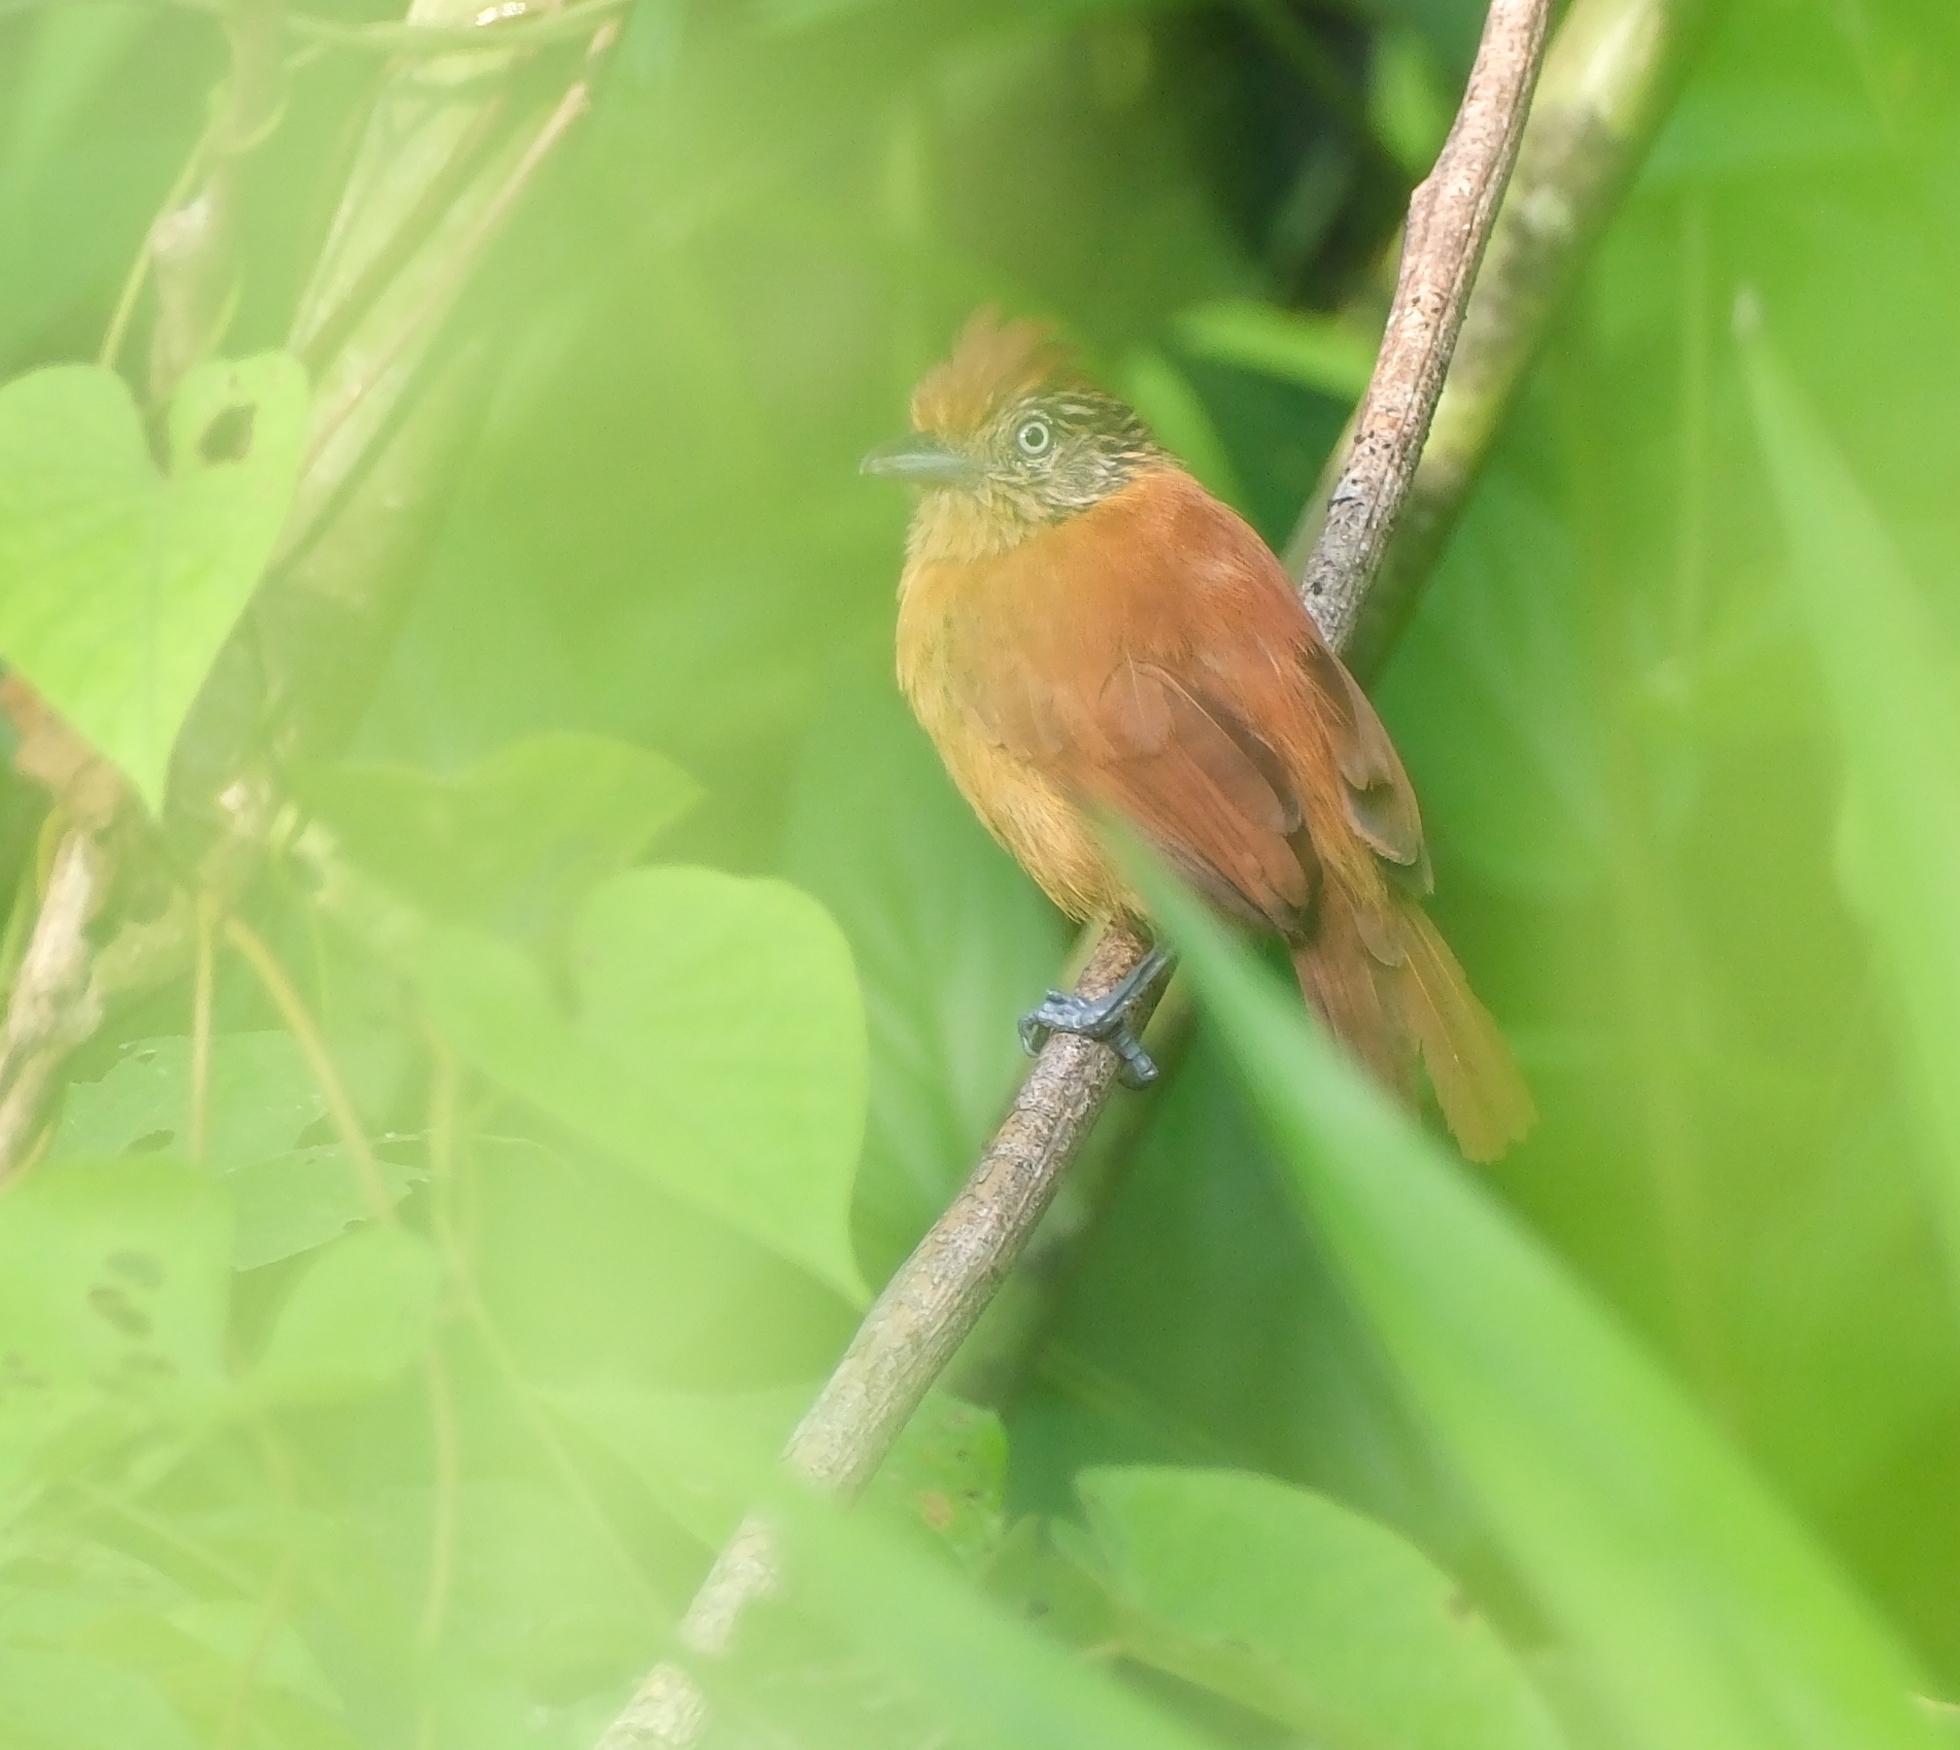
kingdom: Animalia
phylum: Chordata
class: Aves
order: Passeriformes
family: Thamnophilidae
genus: Thamnophilus
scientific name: Thamnophilus doliatus
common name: Barred antshrike
